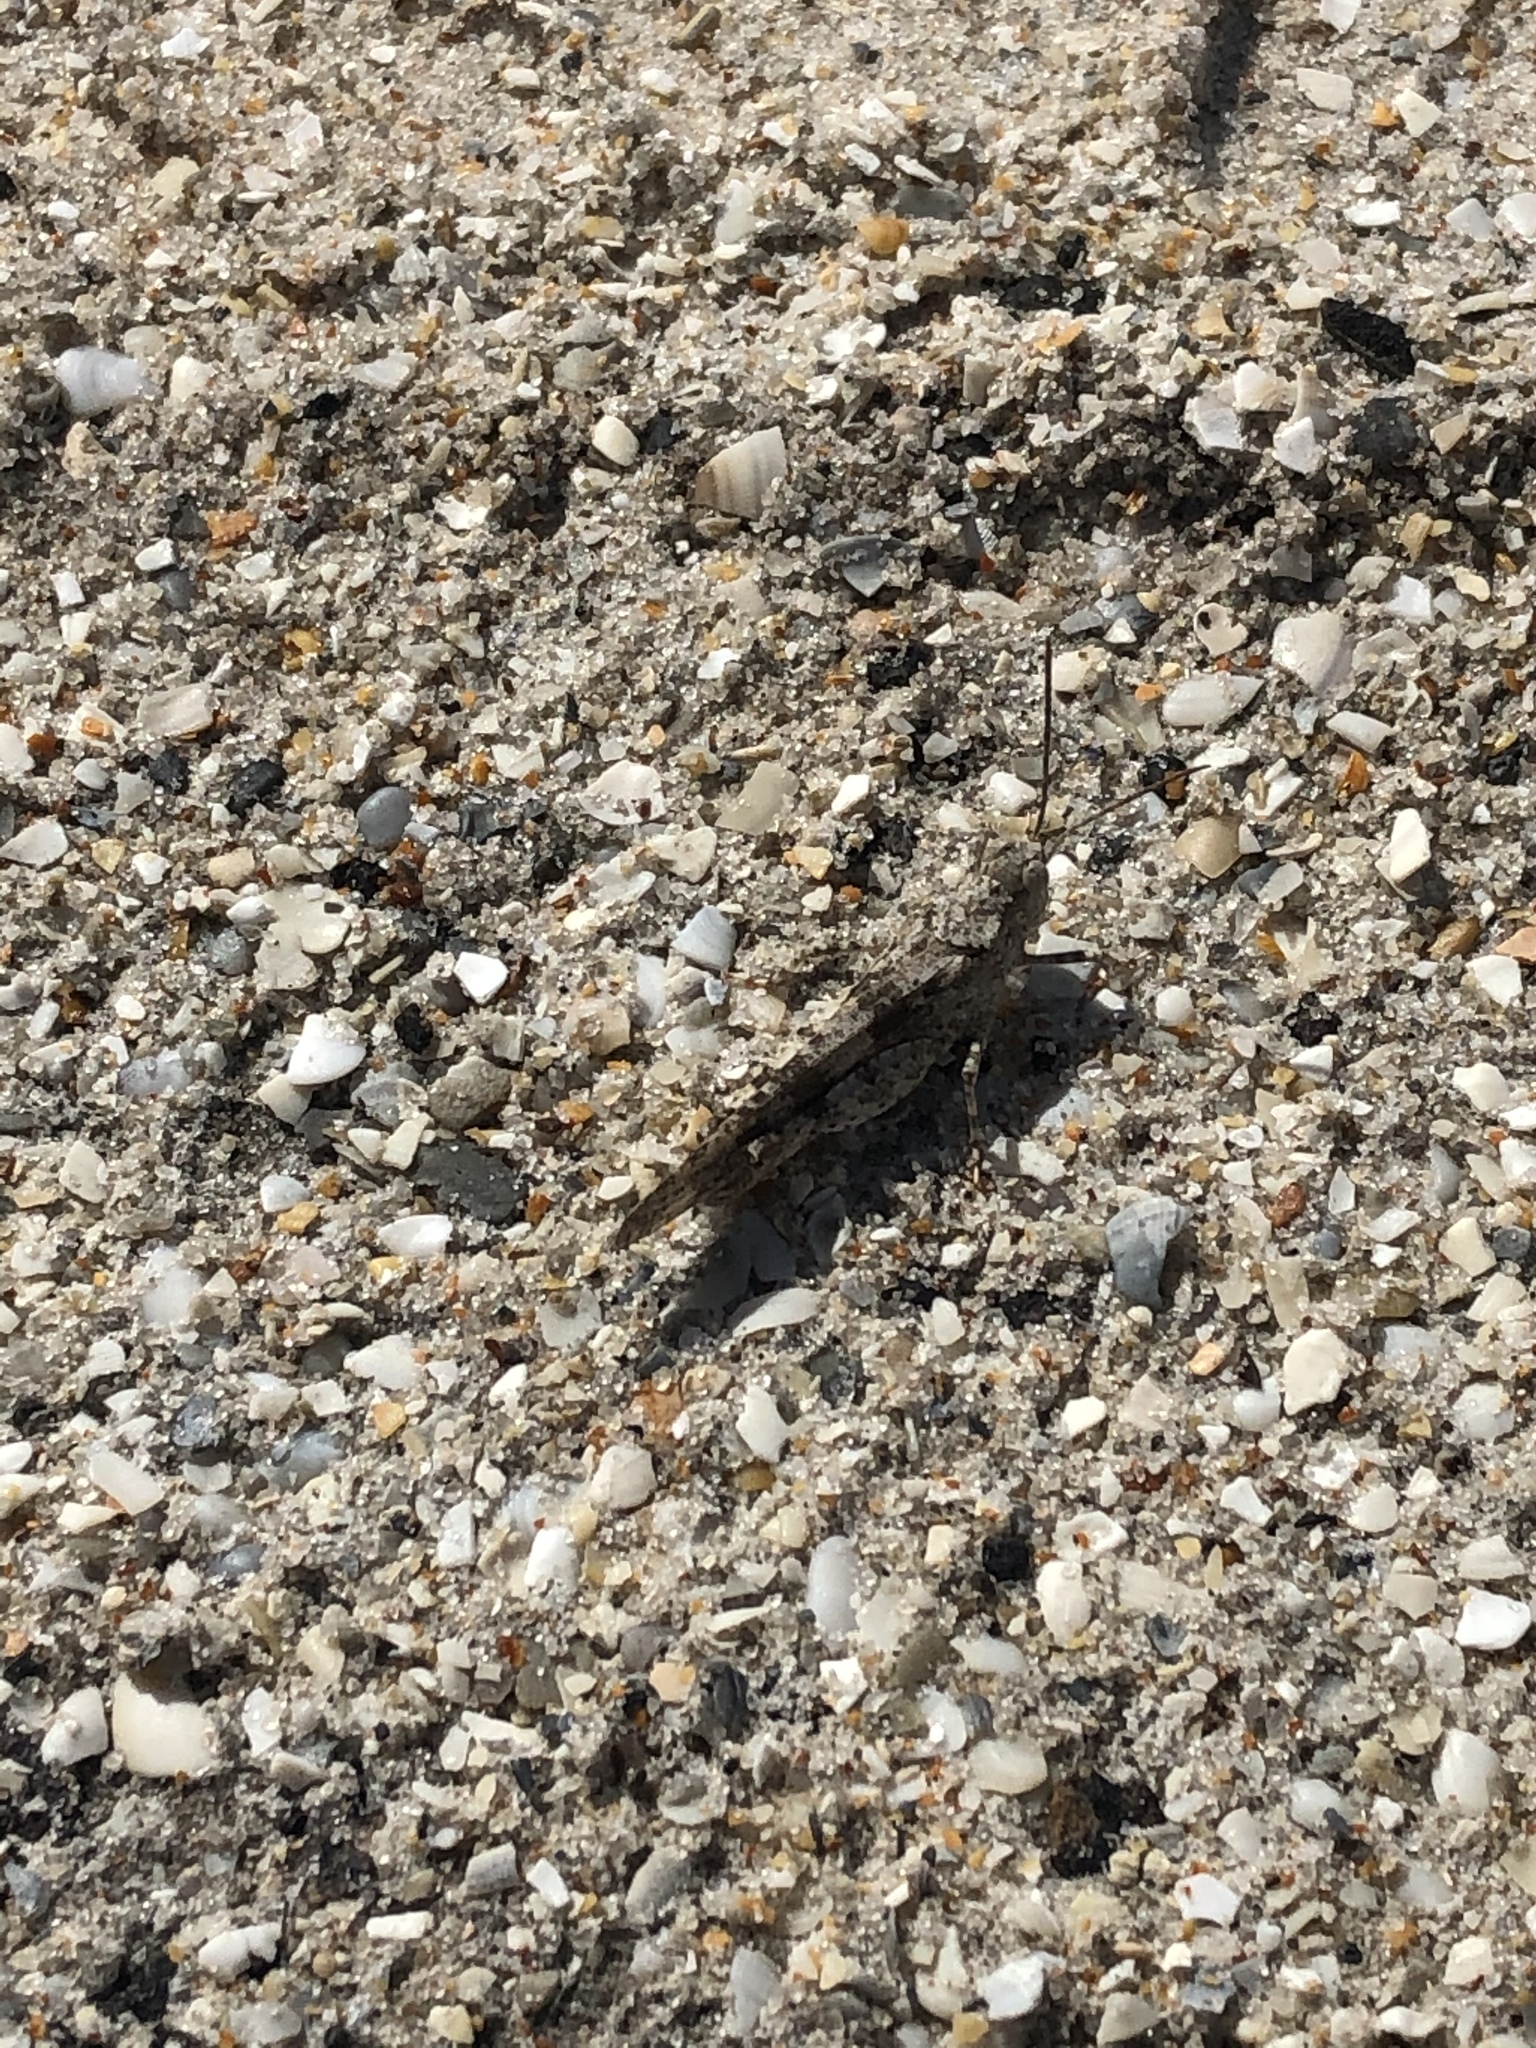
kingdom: Animalia
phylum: Arthropoda
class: Insecta
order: Orthoptera
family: Acrididae
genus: Trimerotropis
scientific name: Trimerotropis maritima
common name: Seaside locust
